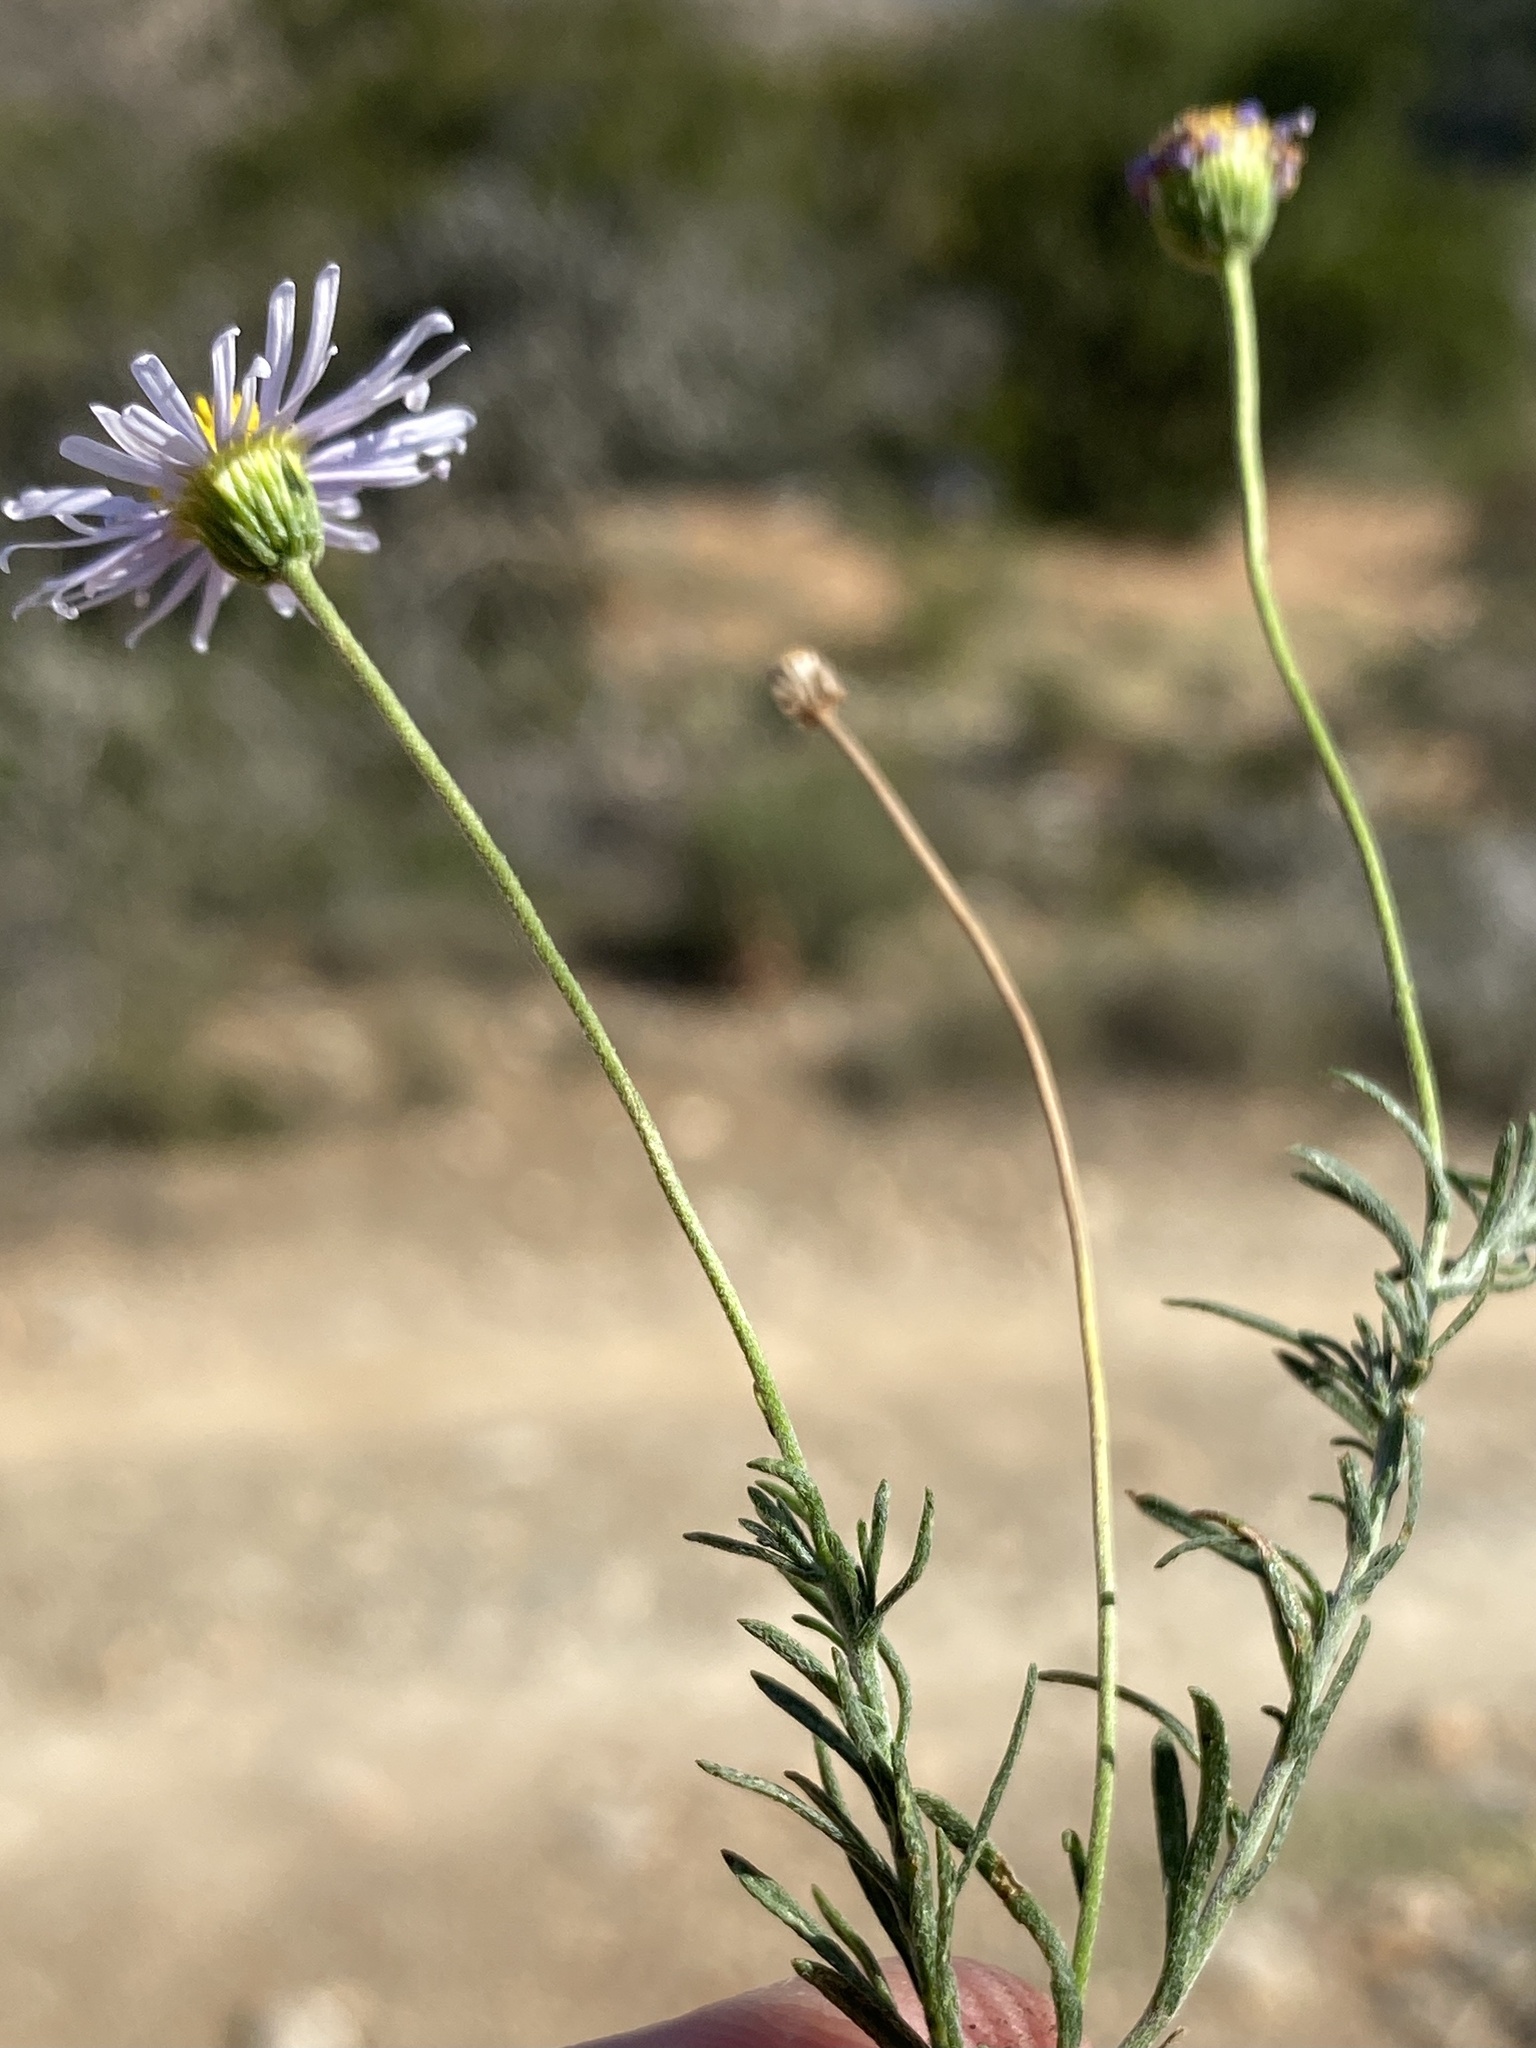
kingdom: Plantae
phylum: Tracheophyta
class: Magnoliopsida
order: Asterales
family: Asteraceae
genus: Felicia
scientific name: Felicia muricata
